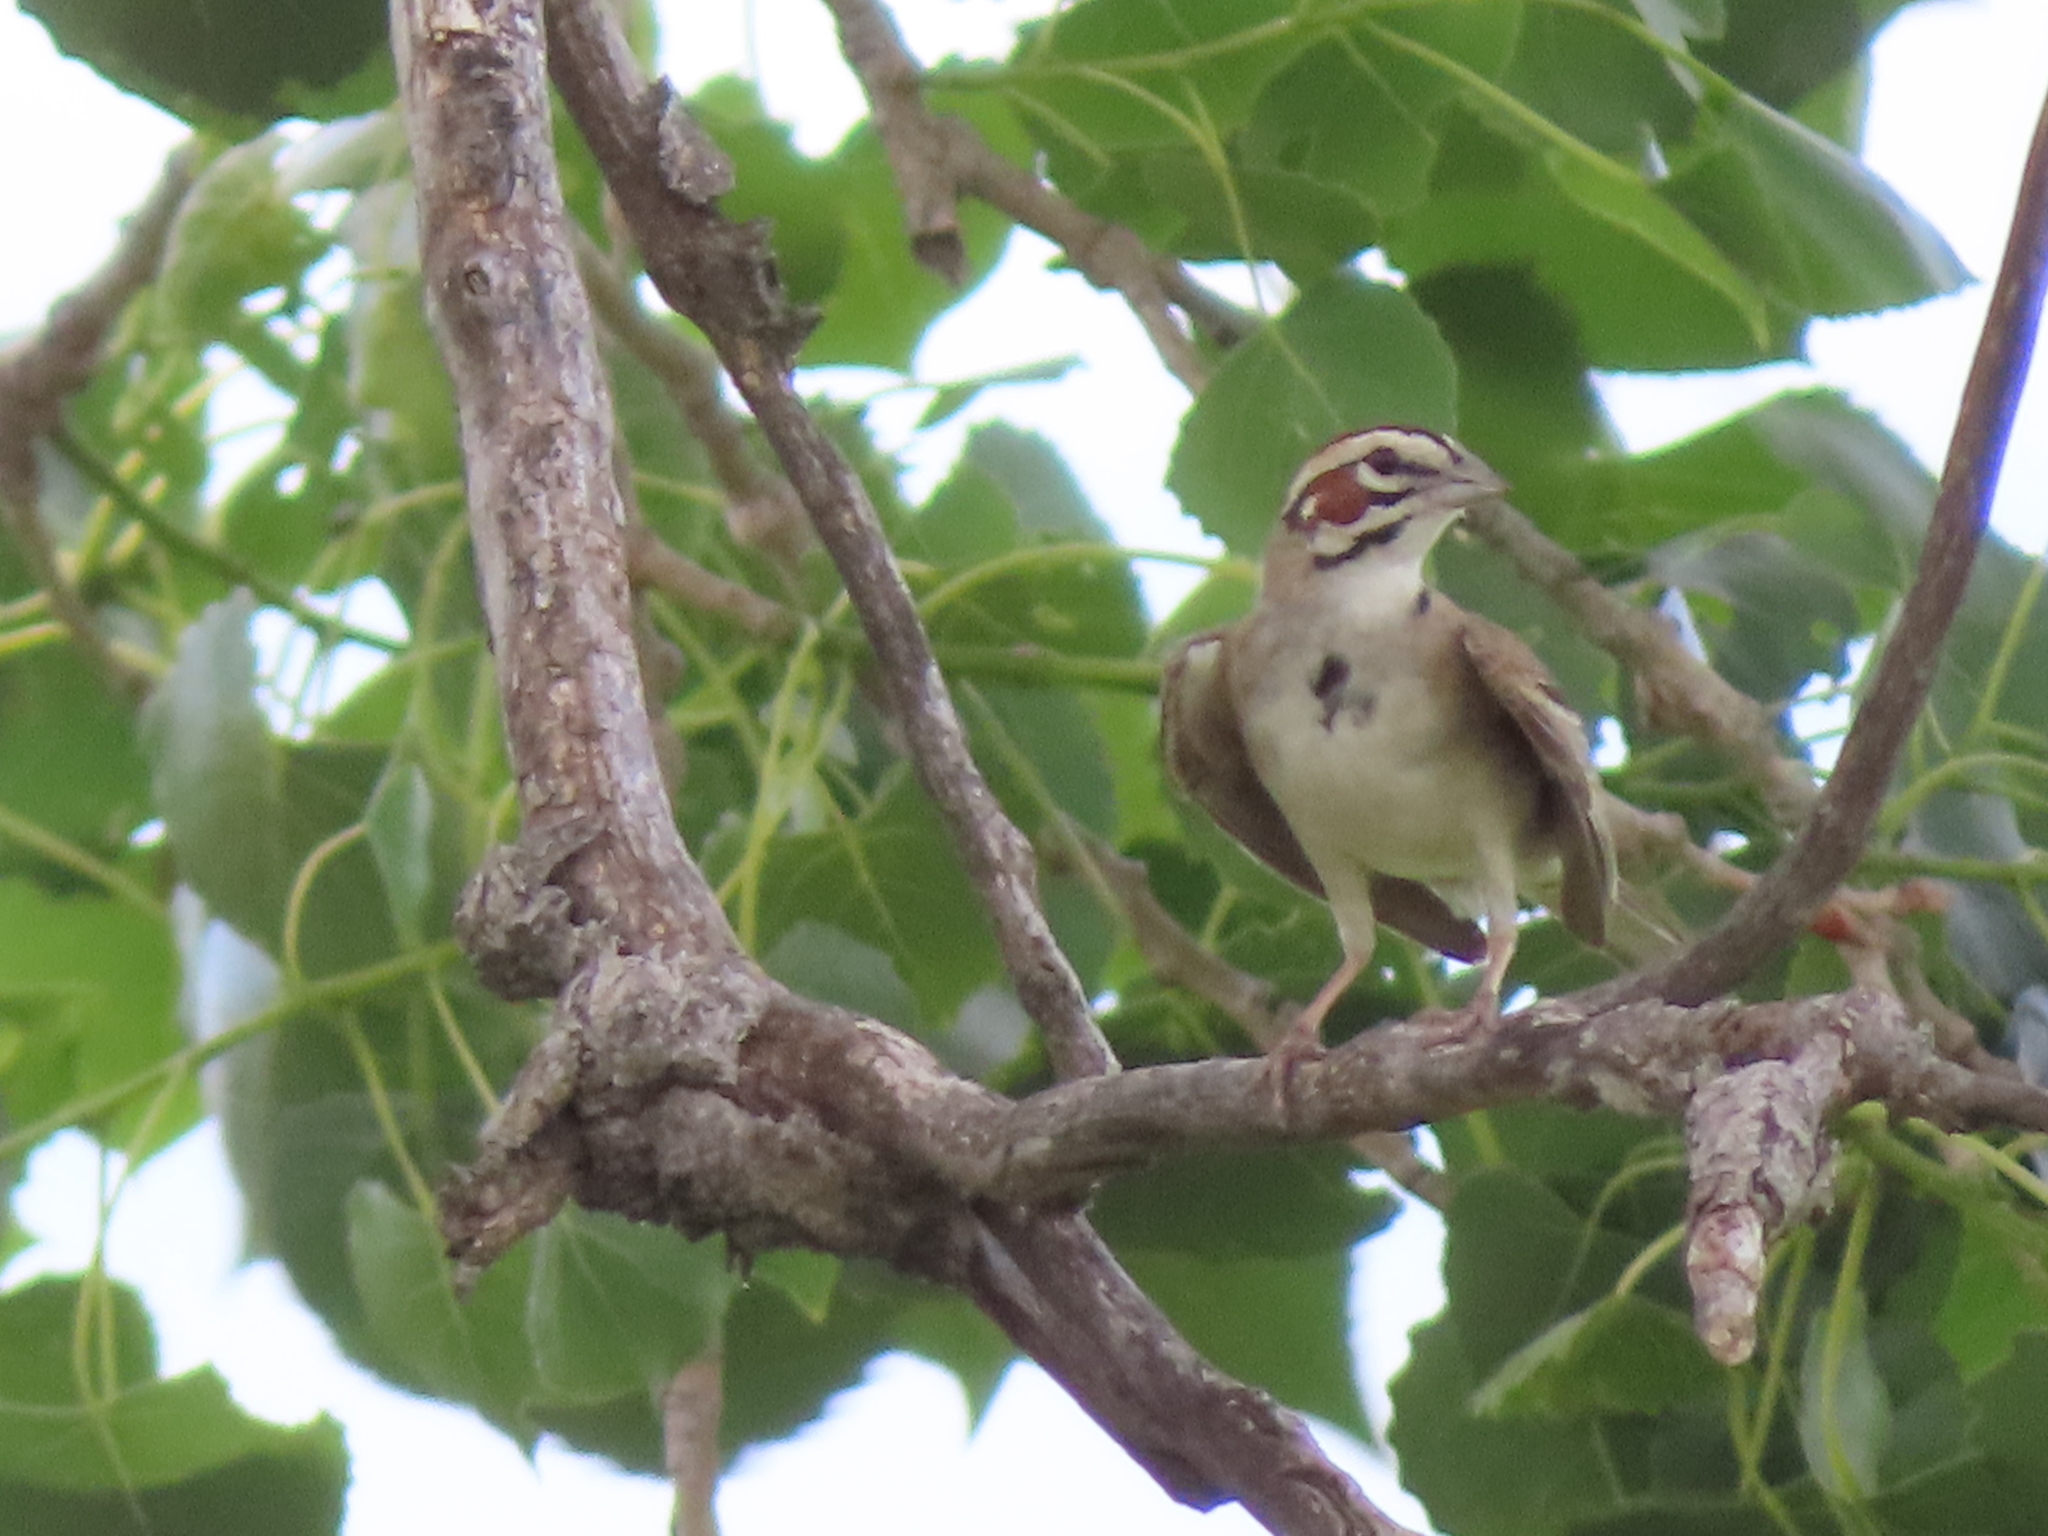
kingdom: Animalia
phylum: Chordata
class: Aves
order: Passeriformes
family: Passerellidae
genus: Chondestes
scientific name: Chondestes grammacus
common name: Lark sparrow
